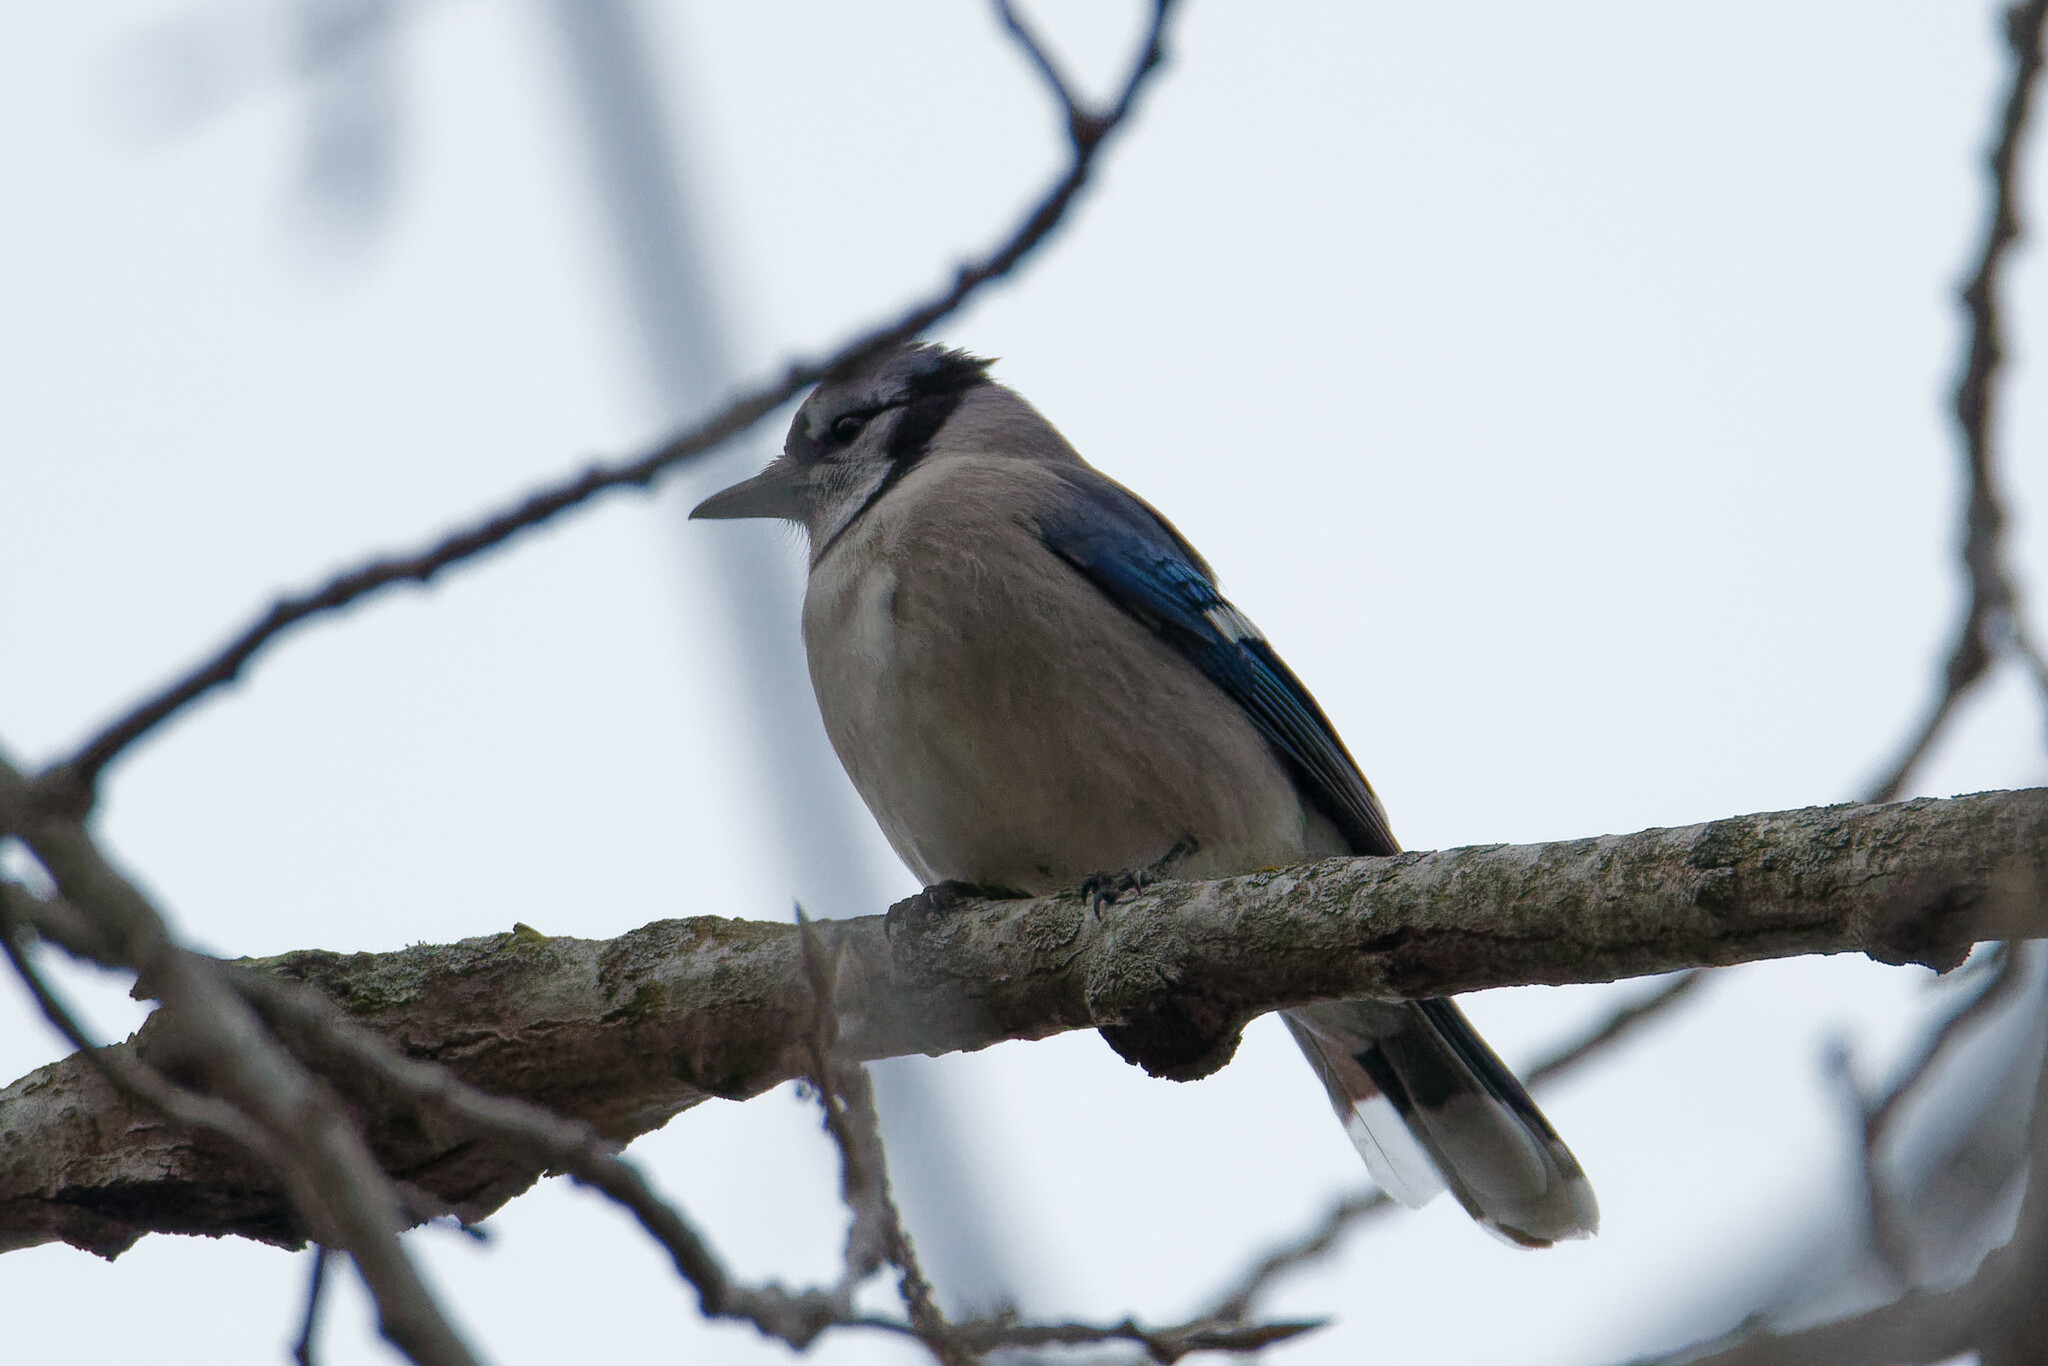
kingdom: Animalia
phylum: Chordata
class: Aves
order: Passeriformes
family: Corvidae
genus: Cyanocitta
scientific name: Cyanocitta cristata
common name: Blue jay
